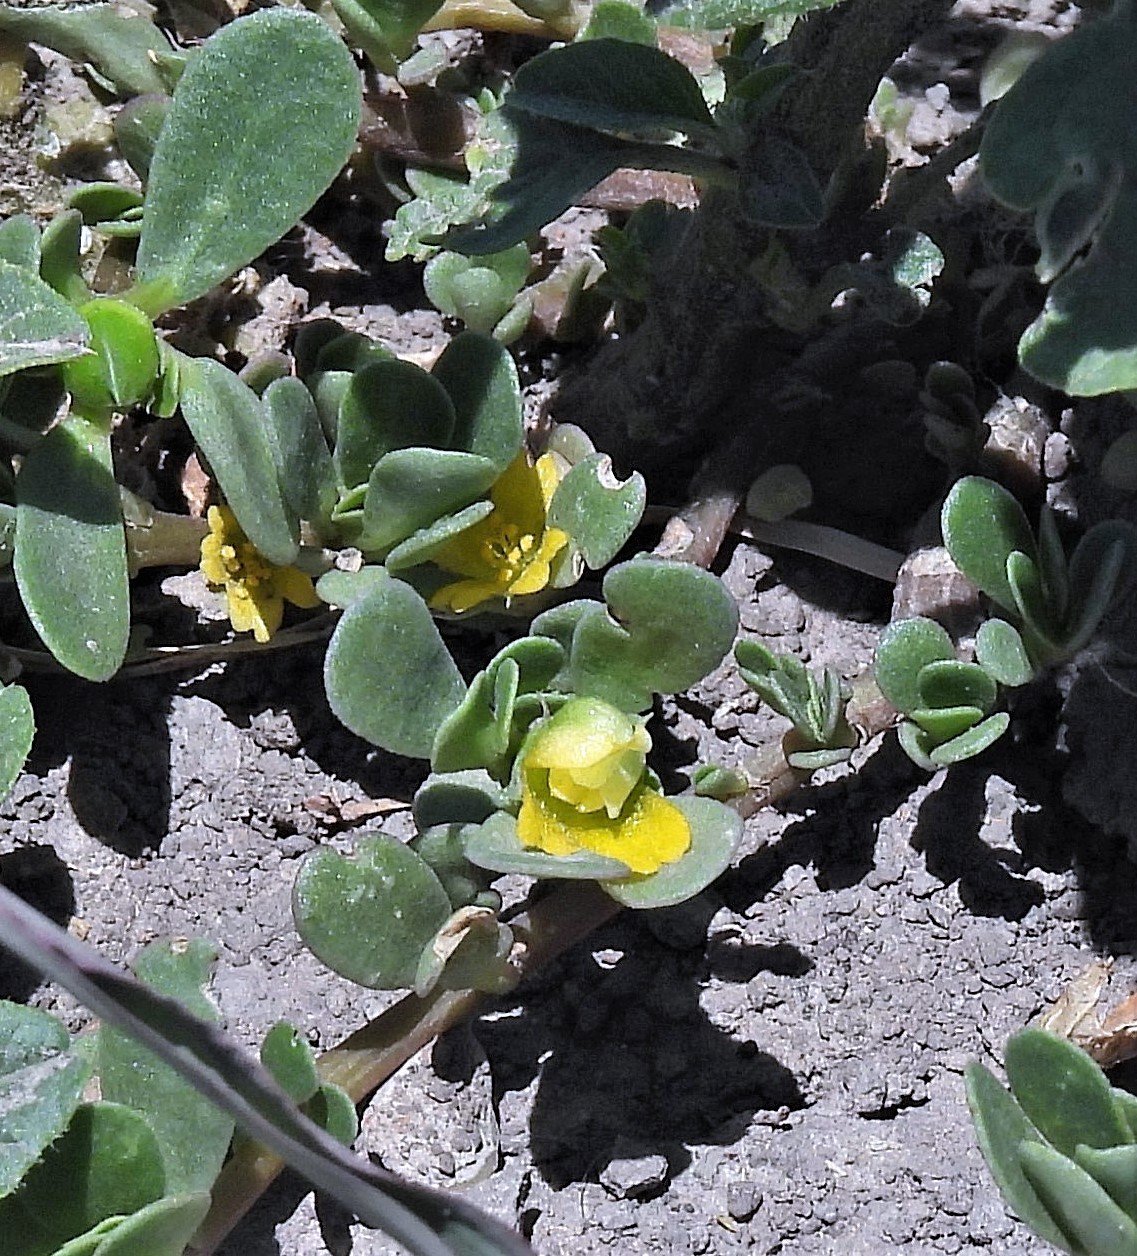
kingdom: Plantae
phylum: Tracheophyta
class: Magnoliopsida
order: Caryophyllales
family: Portulacaceae
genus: Portulaca
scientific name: Portulaca oleracea
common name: Common purslane
